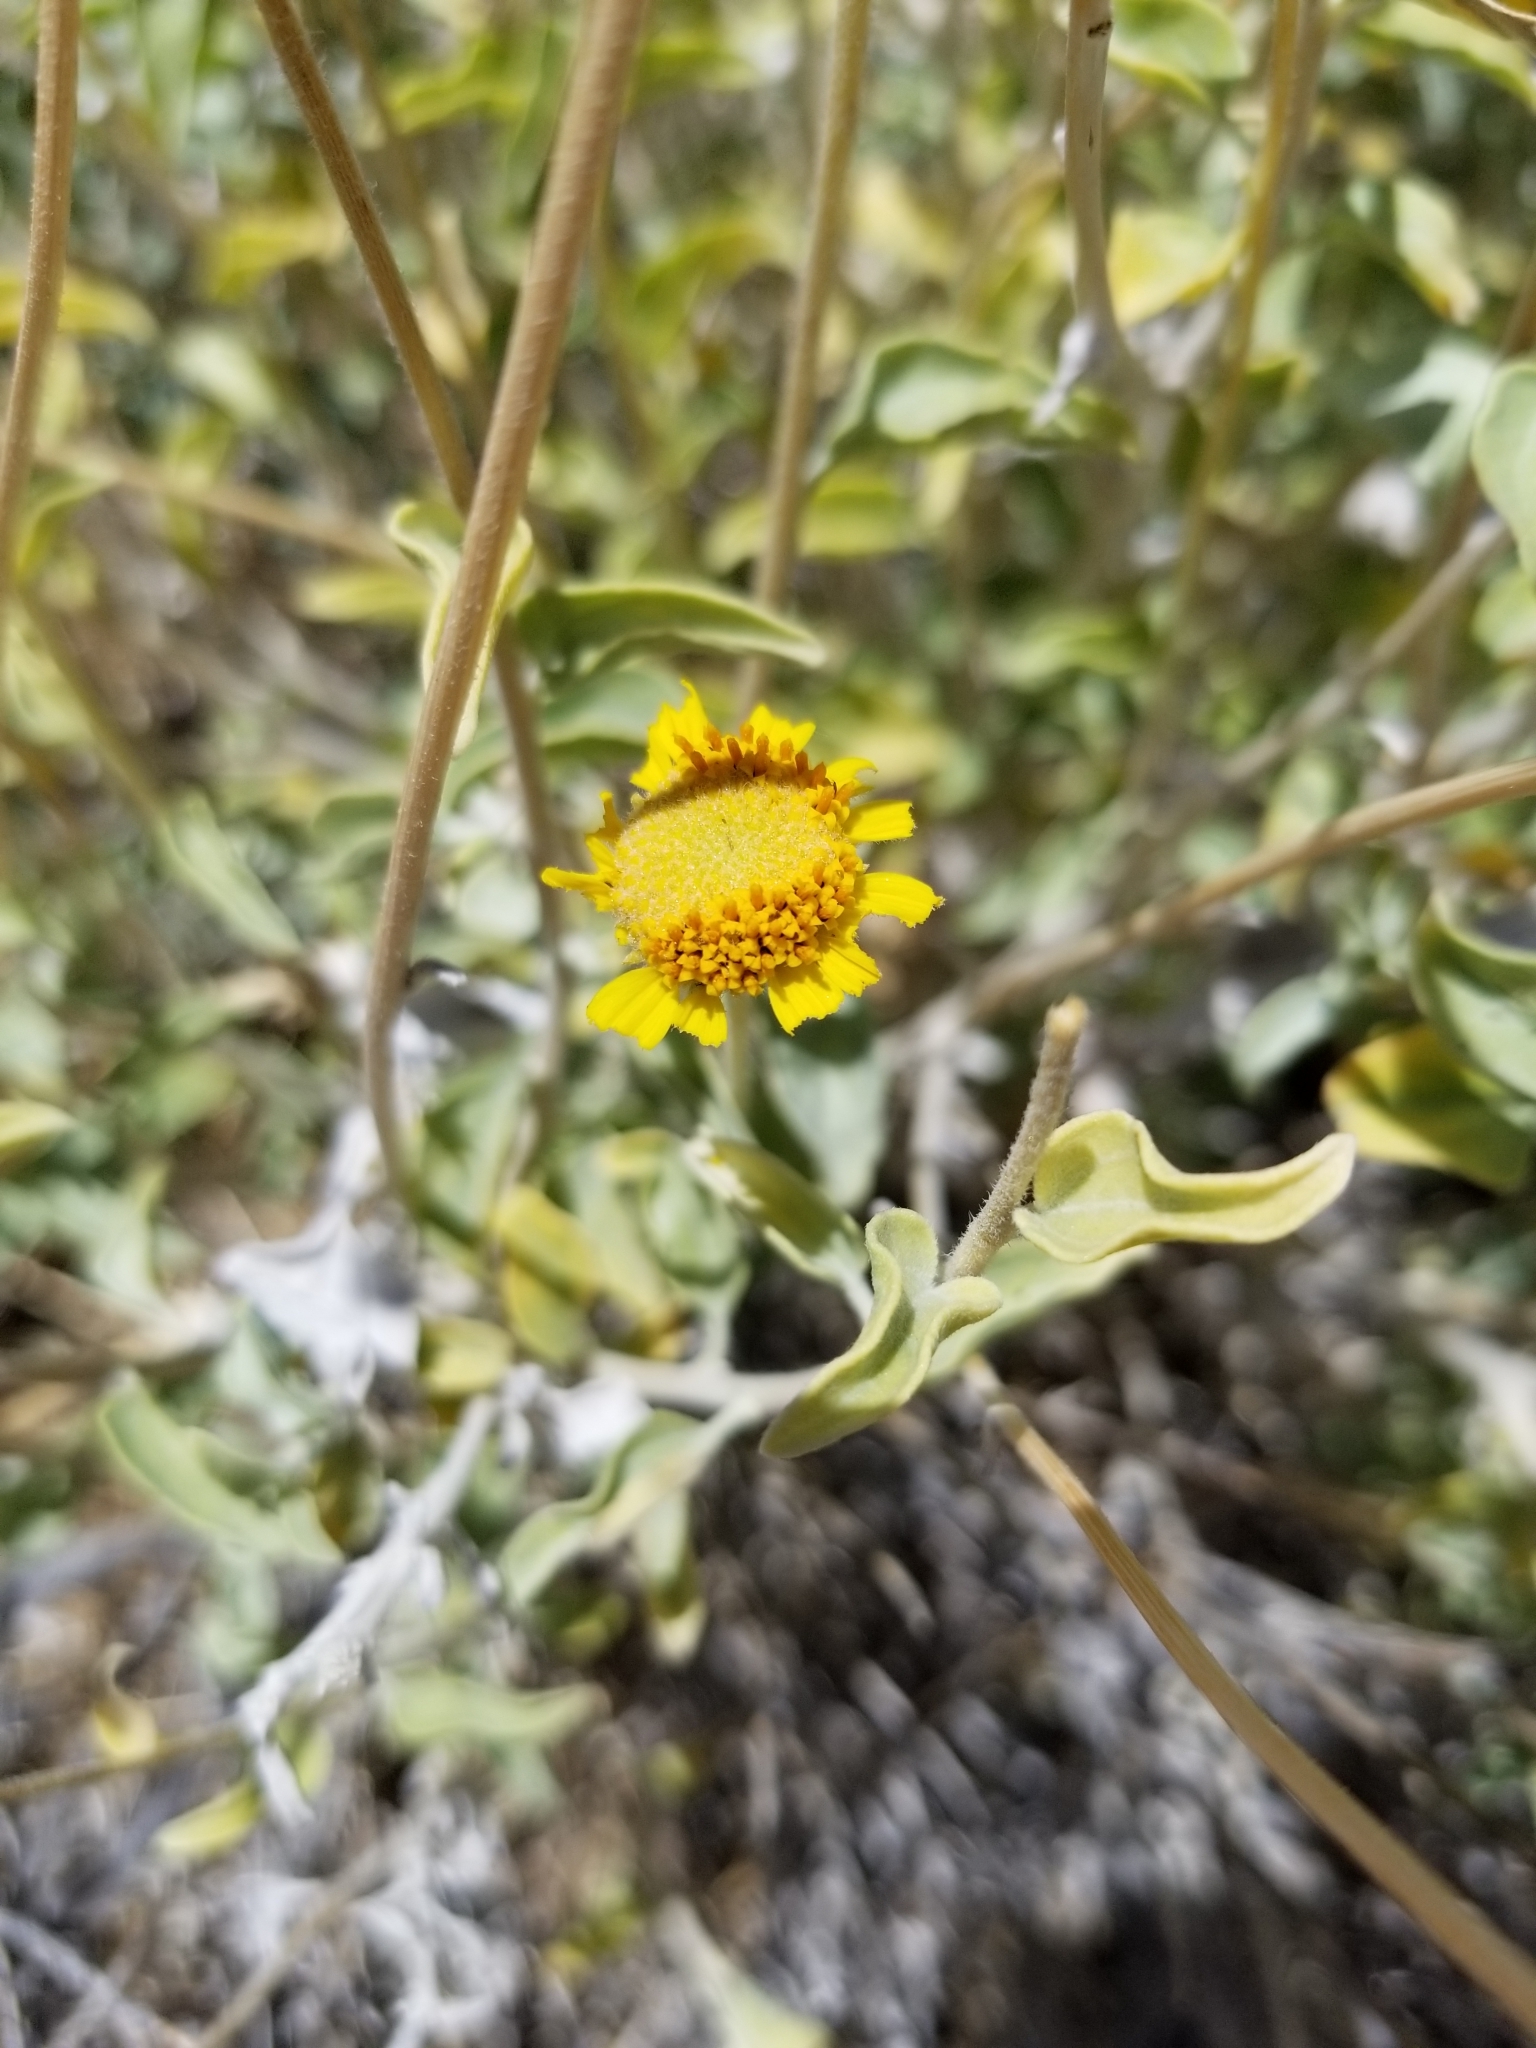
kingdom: Plantae
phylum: Tracheophyta
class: Magnoliopsida
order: Asterales
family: Asteraceae
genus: Encelia
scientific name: Encelia actoni
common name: Acton encelia
